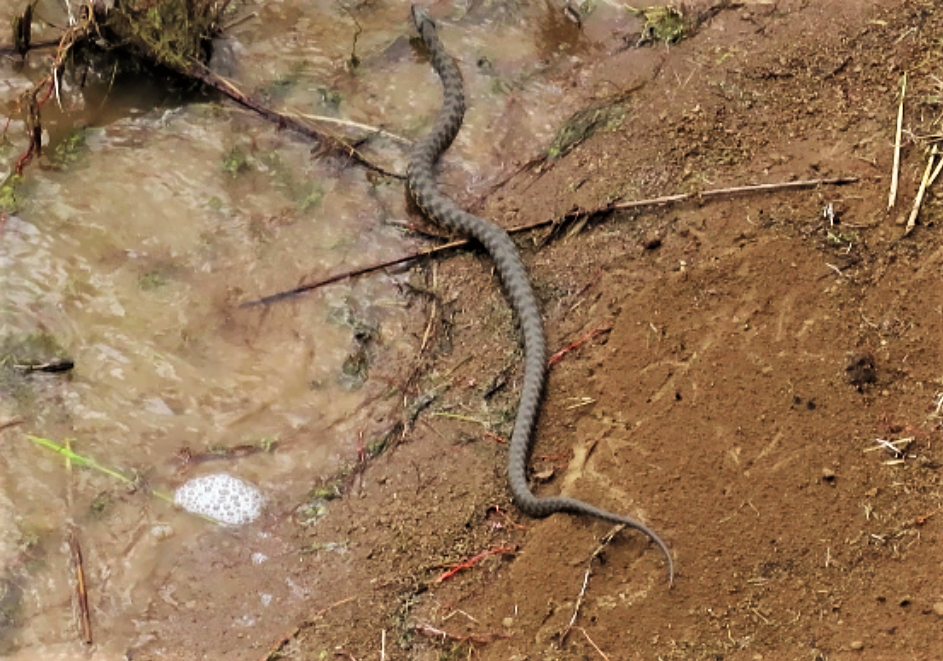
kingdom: Animalia
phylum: Chordata
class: Squamata
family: Colubridae
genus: Natrix
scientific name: Natrix tessellata
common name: Dice snake
